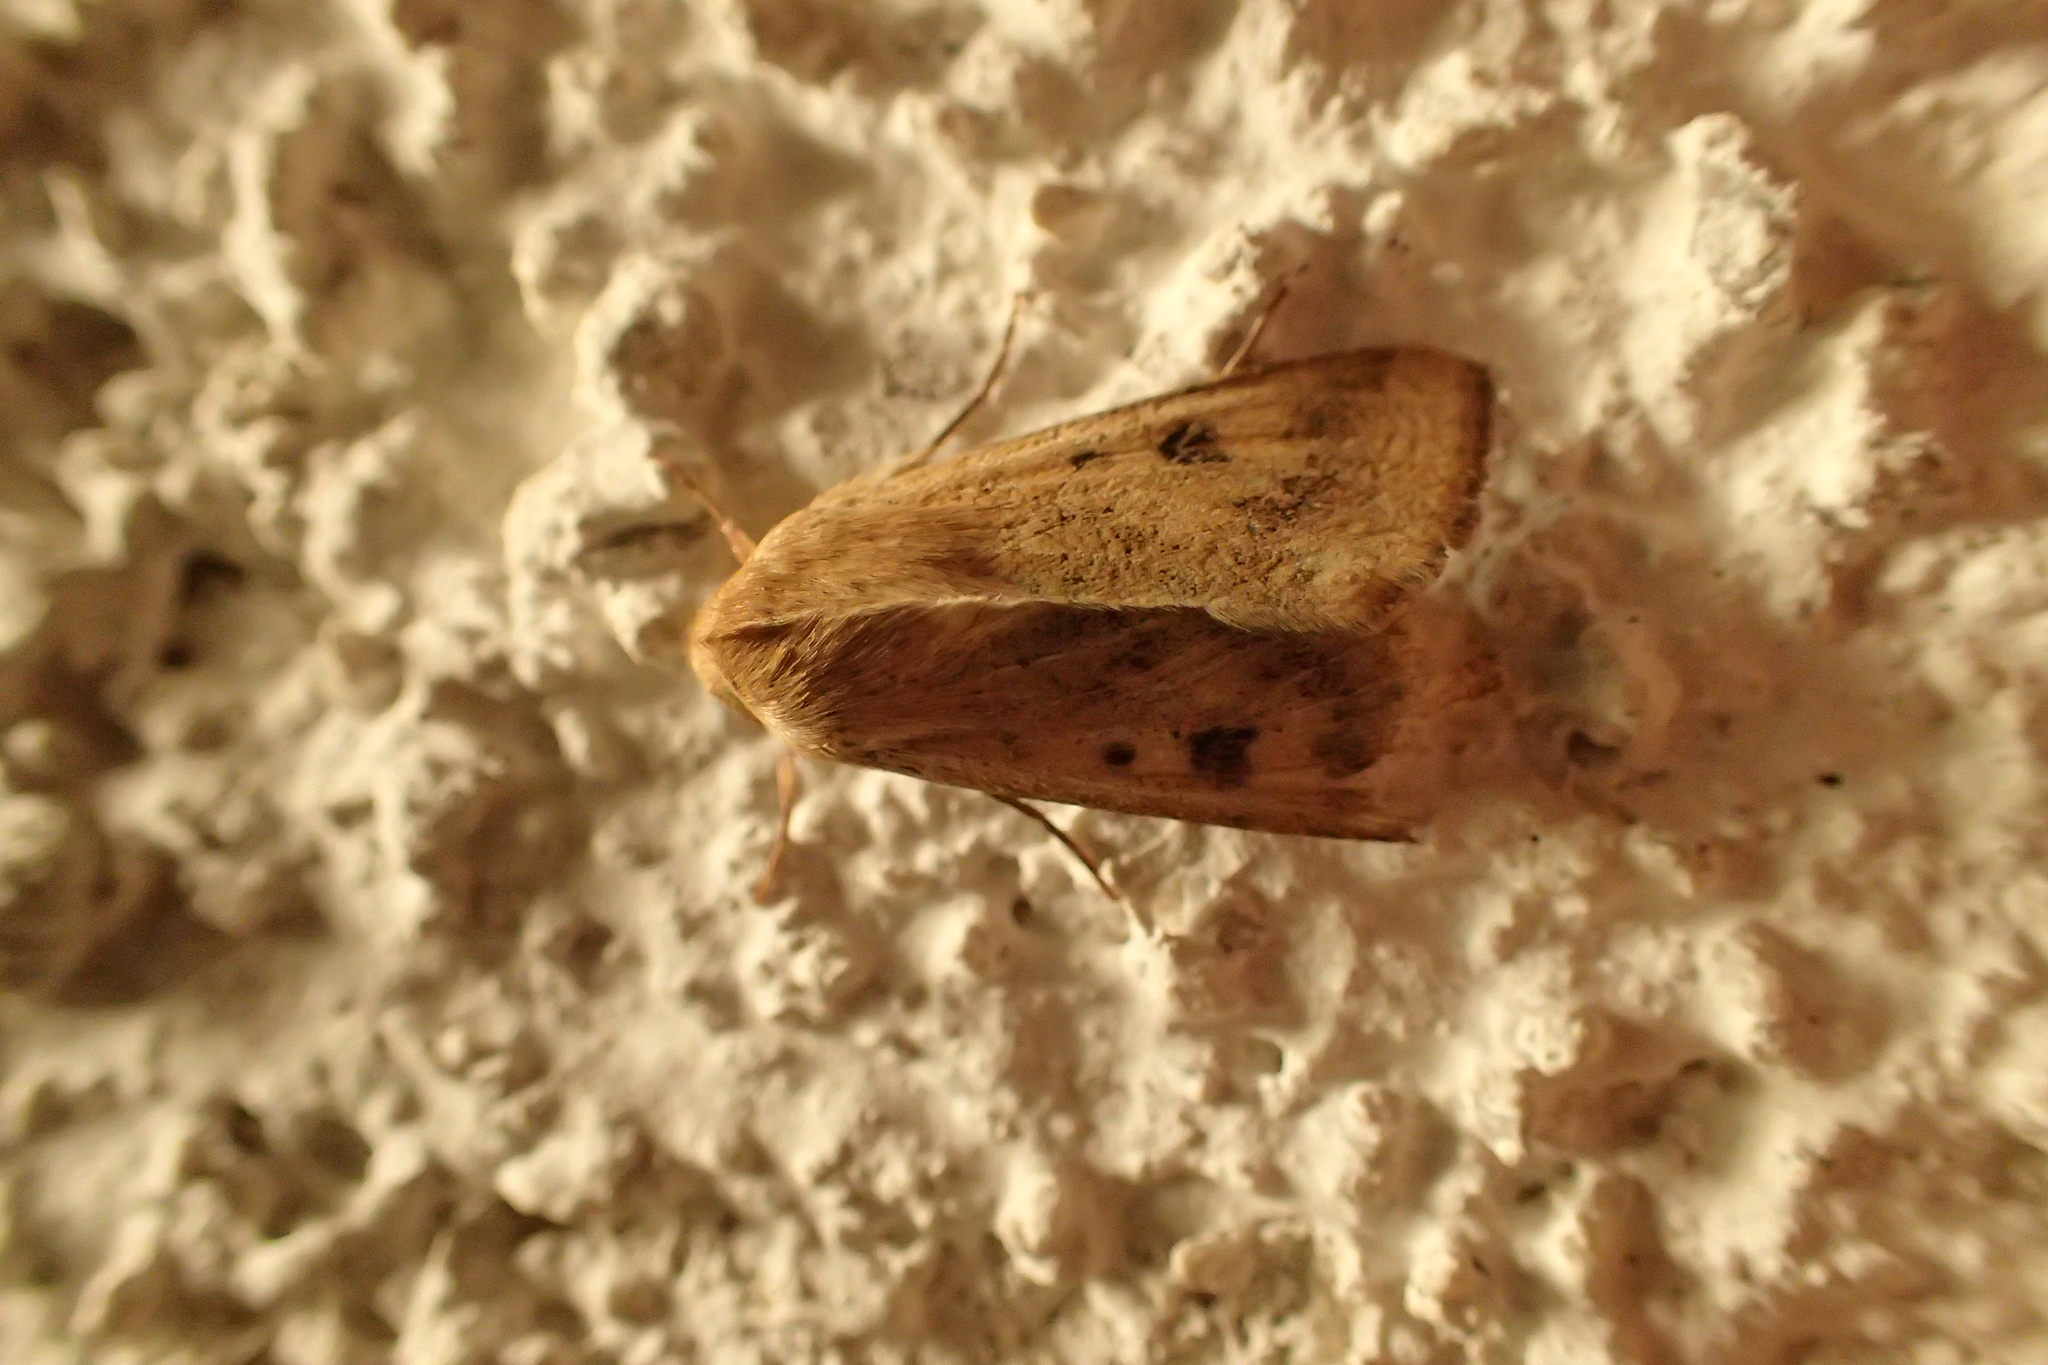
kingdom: Animalia
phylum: Arthropoda
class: Insecta
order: Lepidoptera
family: Noctuidae
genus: Helicoverpa
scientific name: Helicoverpa armigera
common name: Cotton bollworm
